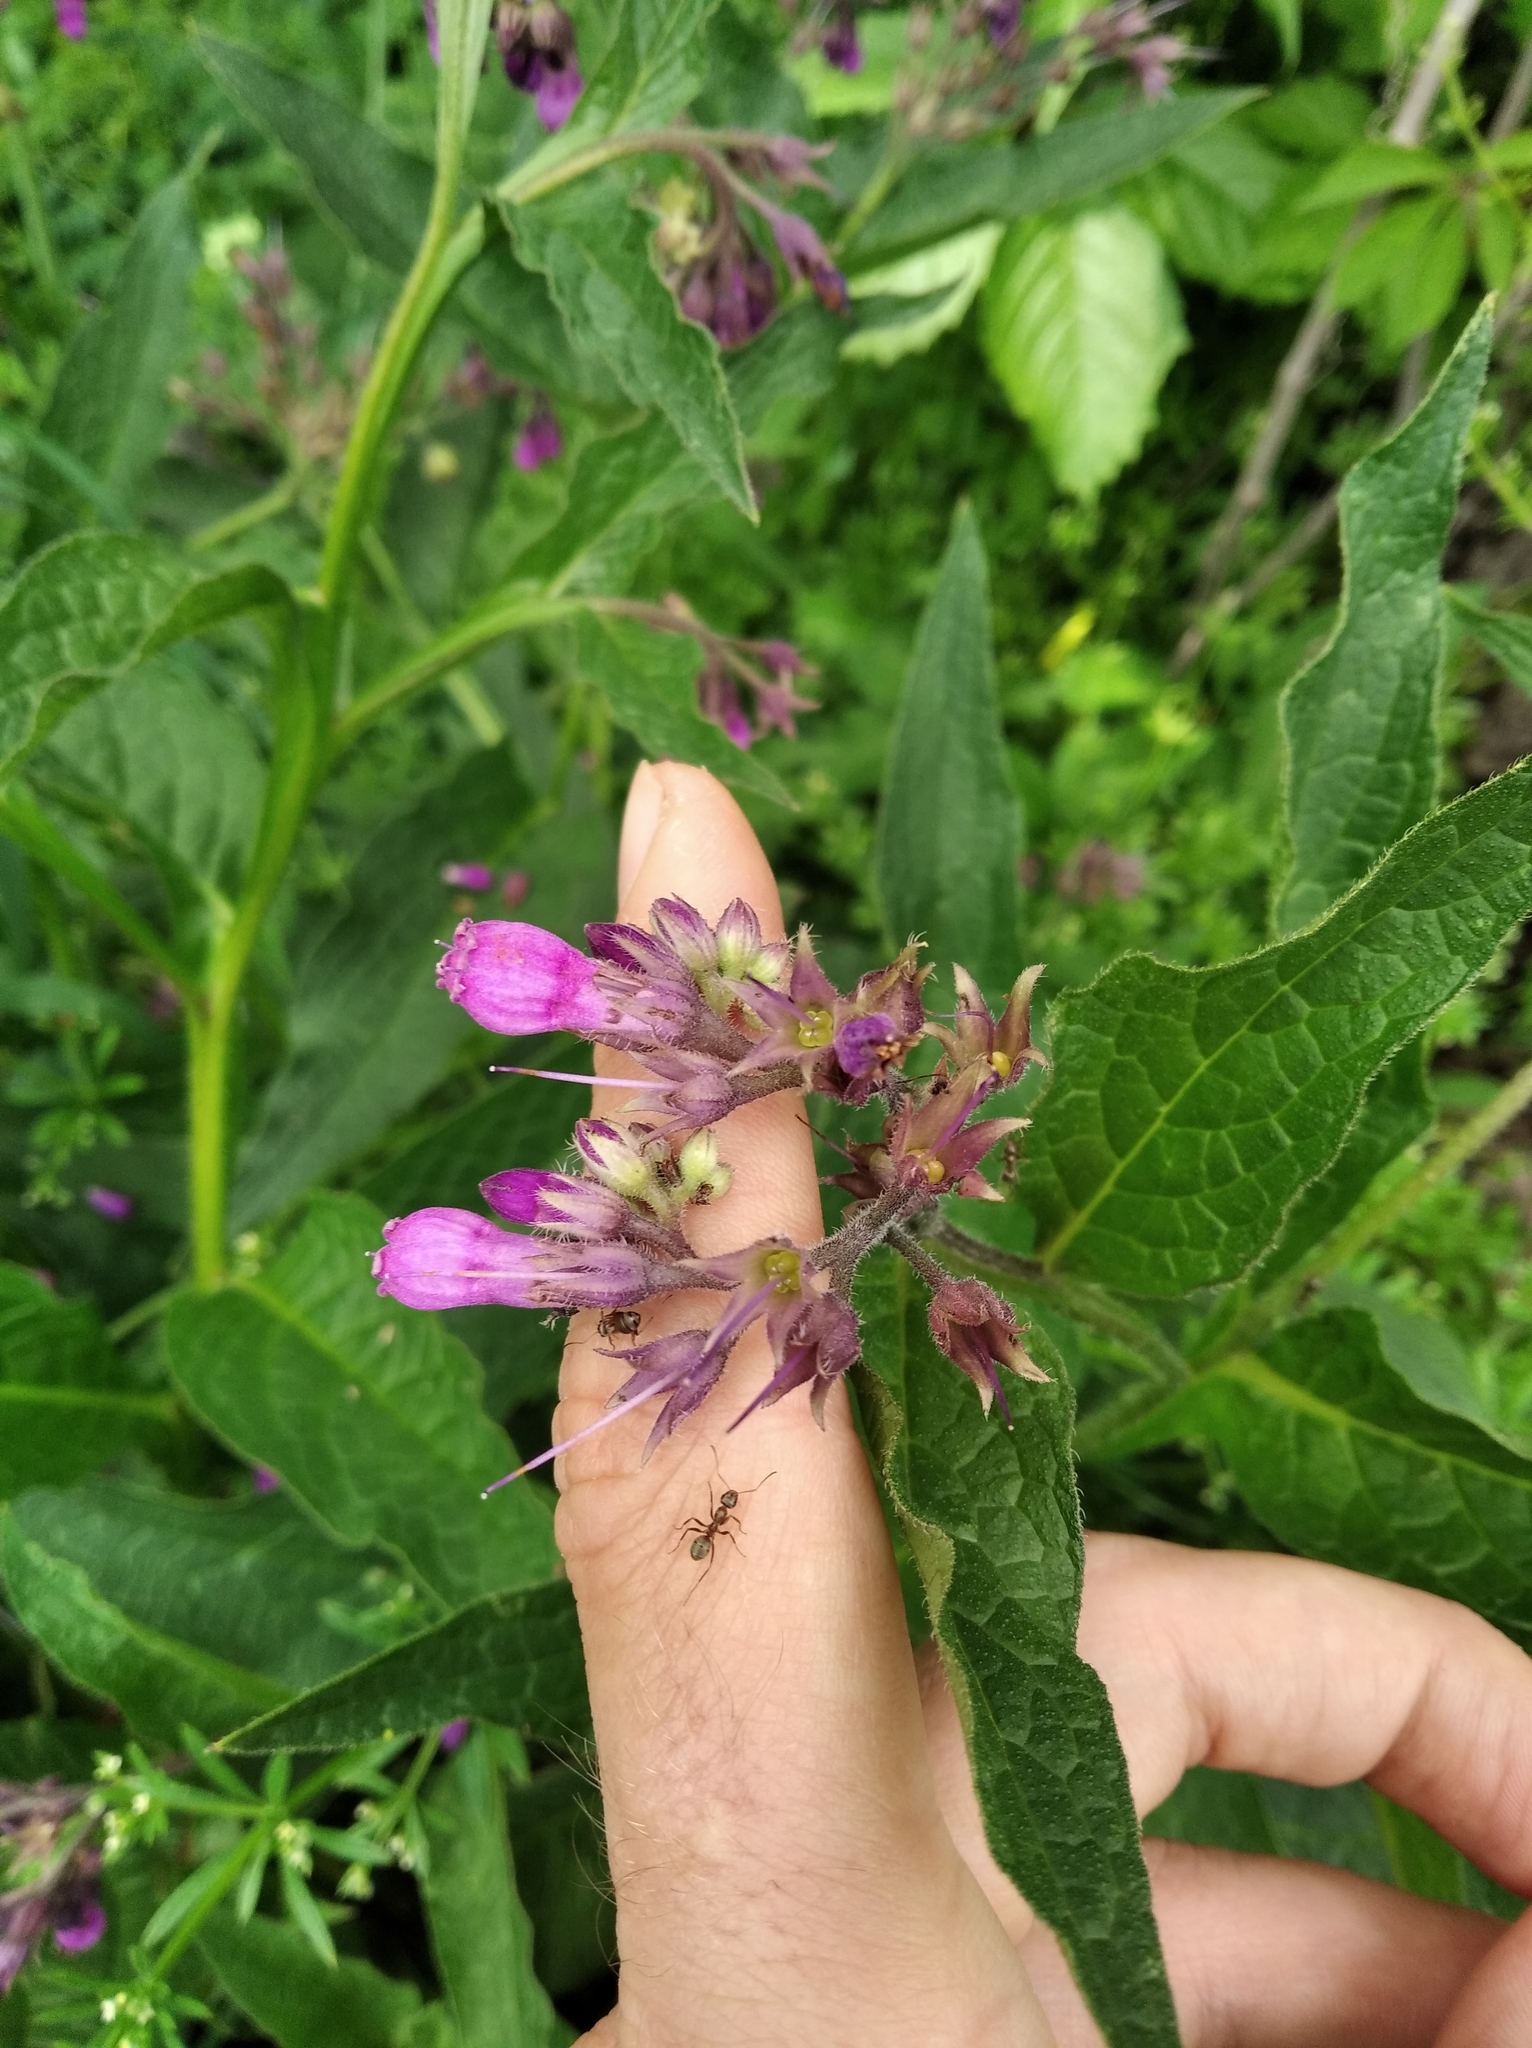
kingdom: Plantae
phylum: Tracheophyta
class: Magnoliopsida
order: Boraginales
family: Boraginaceae
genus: Symphytum
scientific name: Symphytum officinale
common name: Common comfrey
